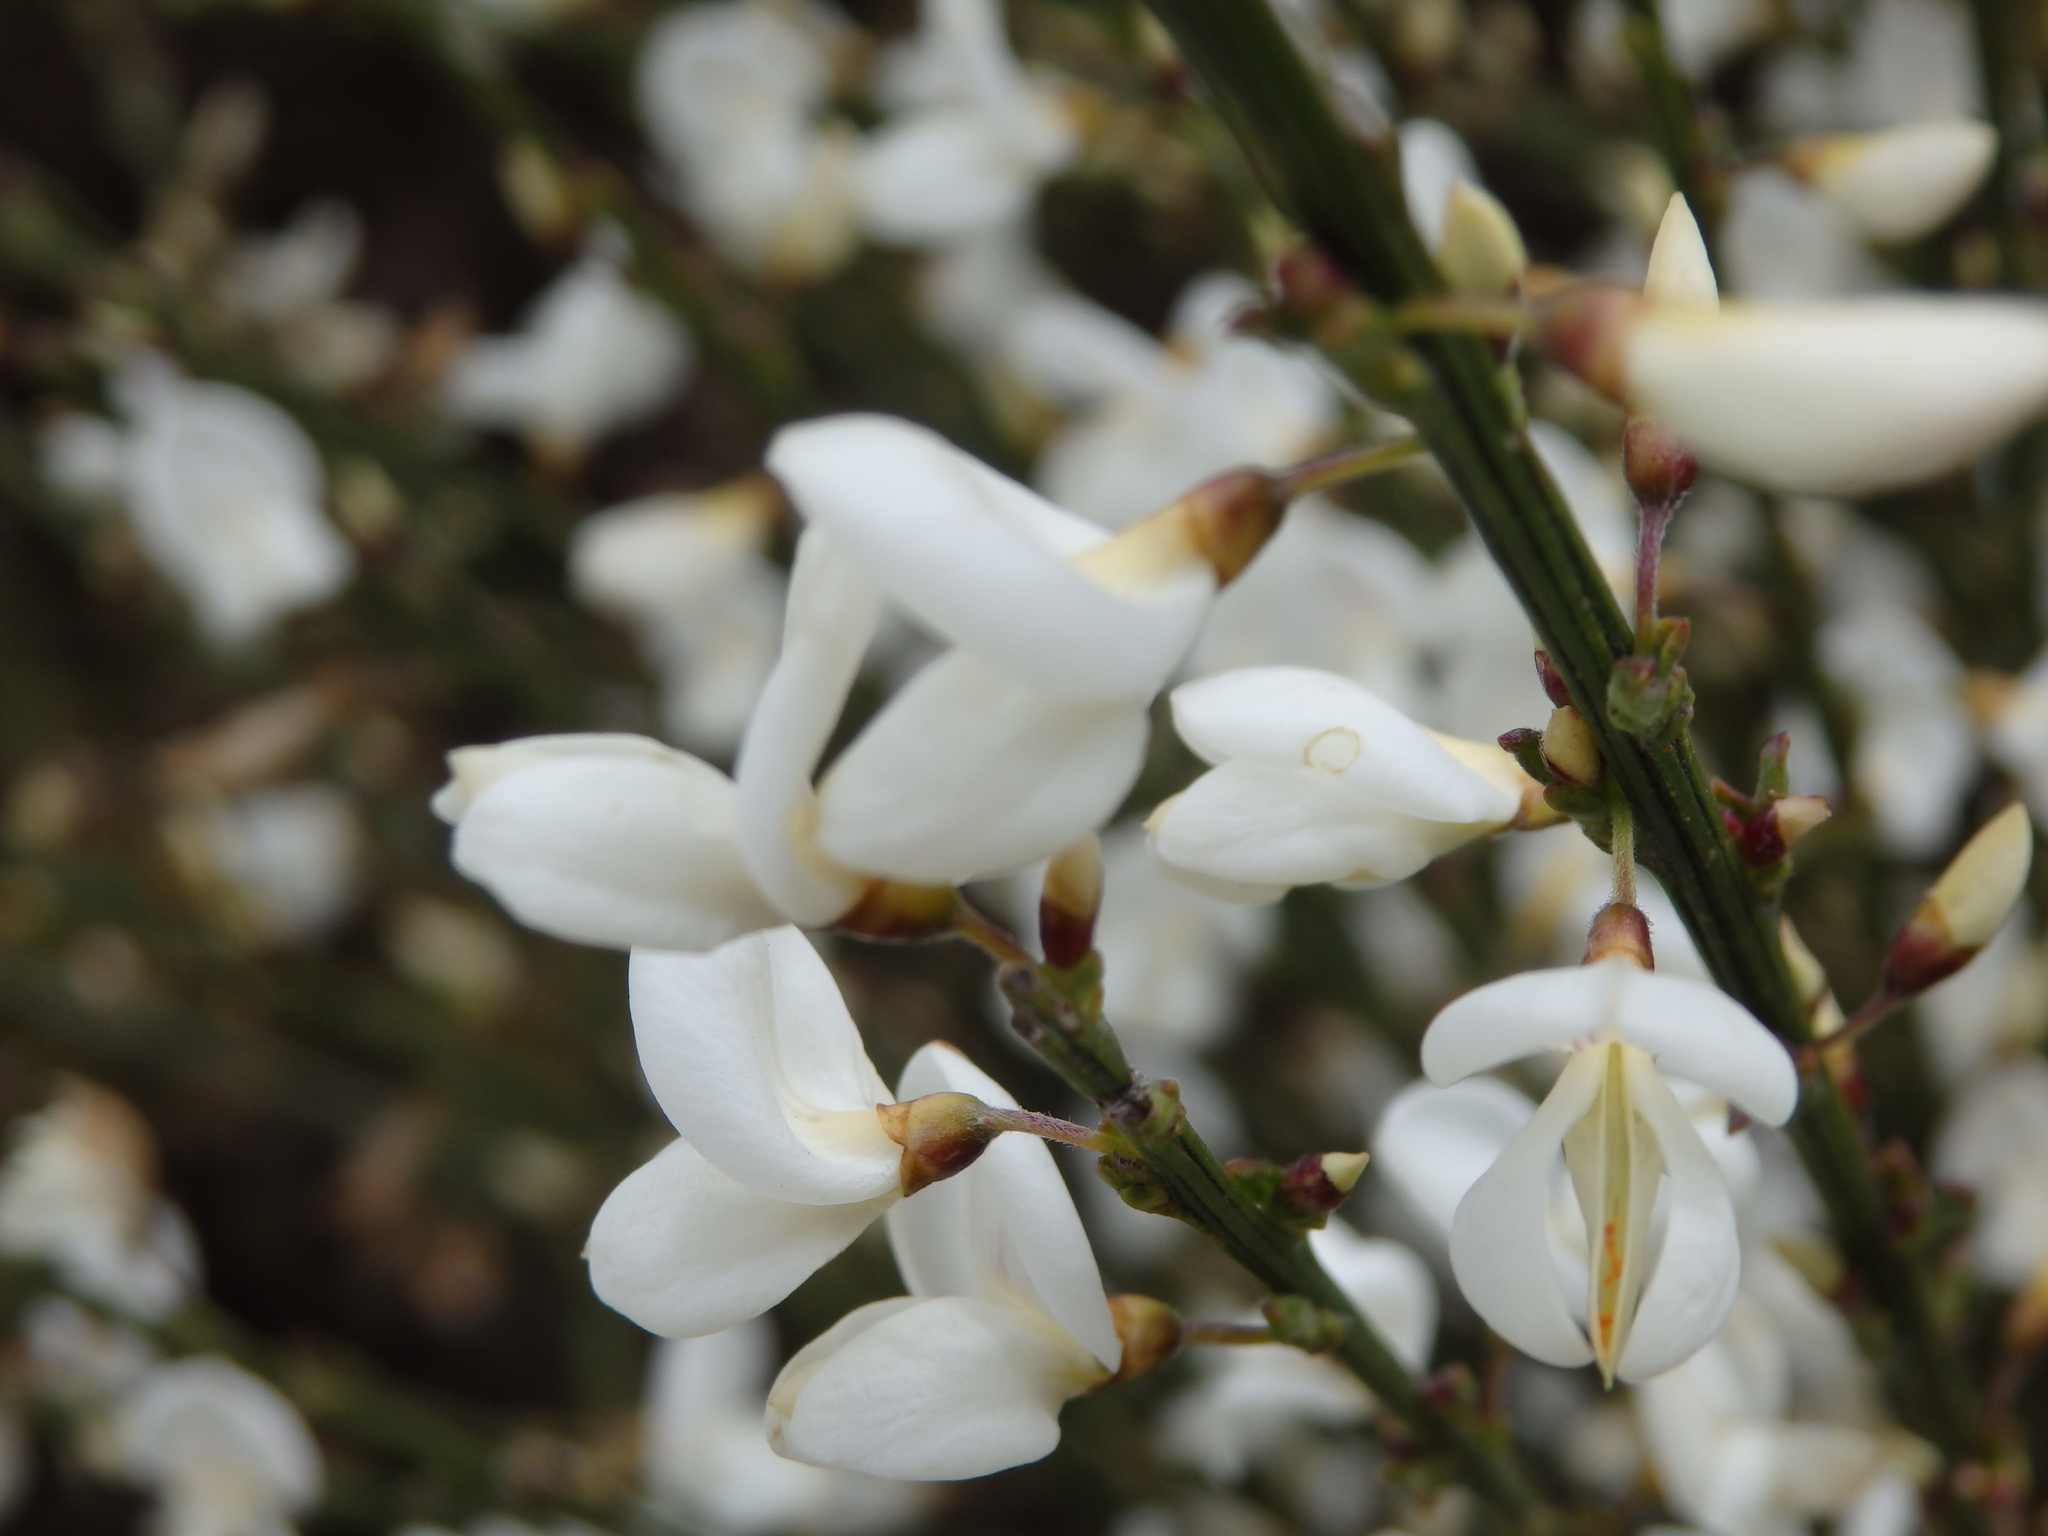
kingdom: Plantae
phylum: Tracheophyta
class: Magnoliopsida
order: Fabales
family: Fabaceae
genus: Cytisus
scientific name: Cytisus multiflorus
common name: White broom
